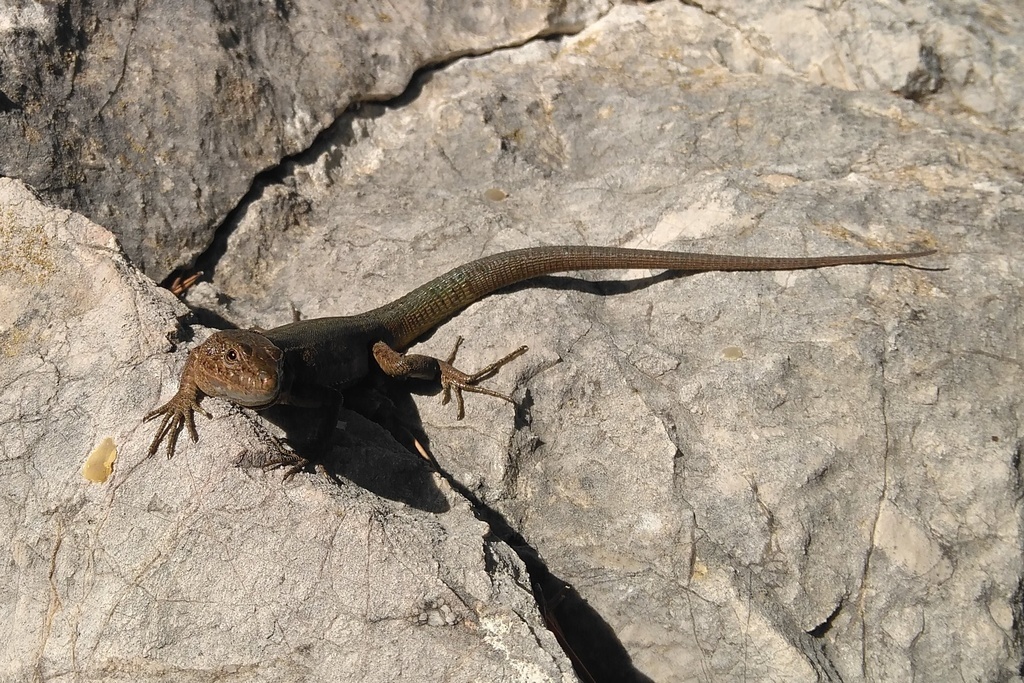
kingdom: Animalia
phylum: Chordata
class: Squamata
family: Lacertidae
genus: Podarcis
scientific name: Podarcis lilfordi
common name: Belearic lizard
